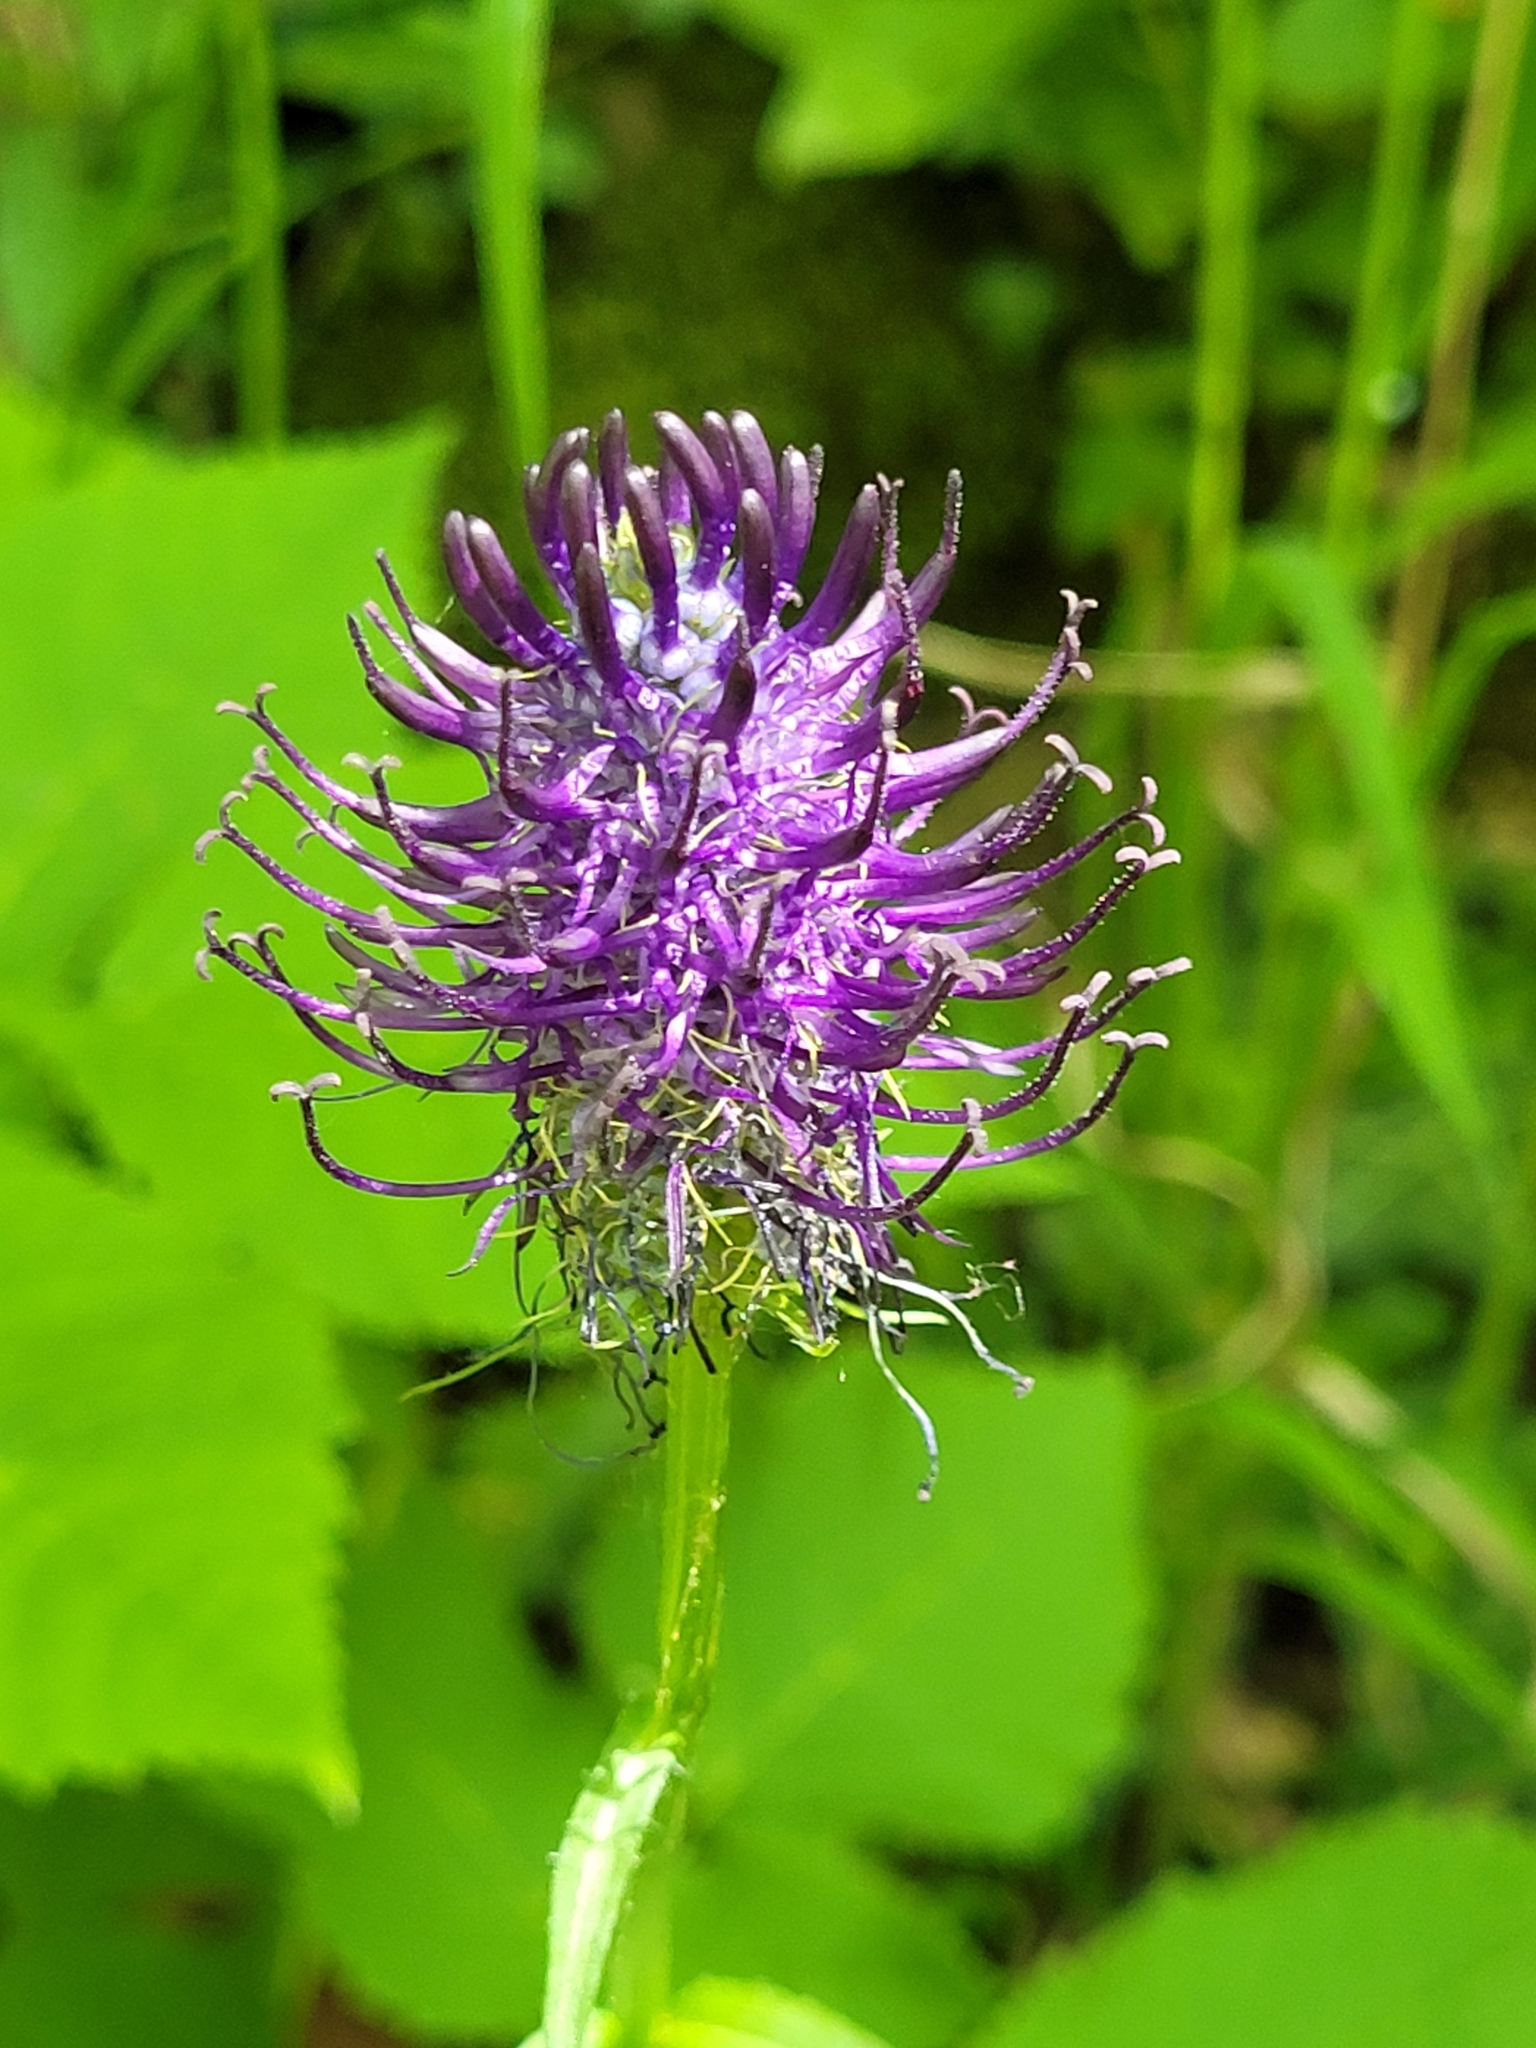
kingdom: Plantae
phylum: Tracheophyta
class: Magnoliopsida
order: Asterales
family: Campanulaceae
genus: Phyteuma
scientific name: Phyteuma nigrum
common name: Black rampion
